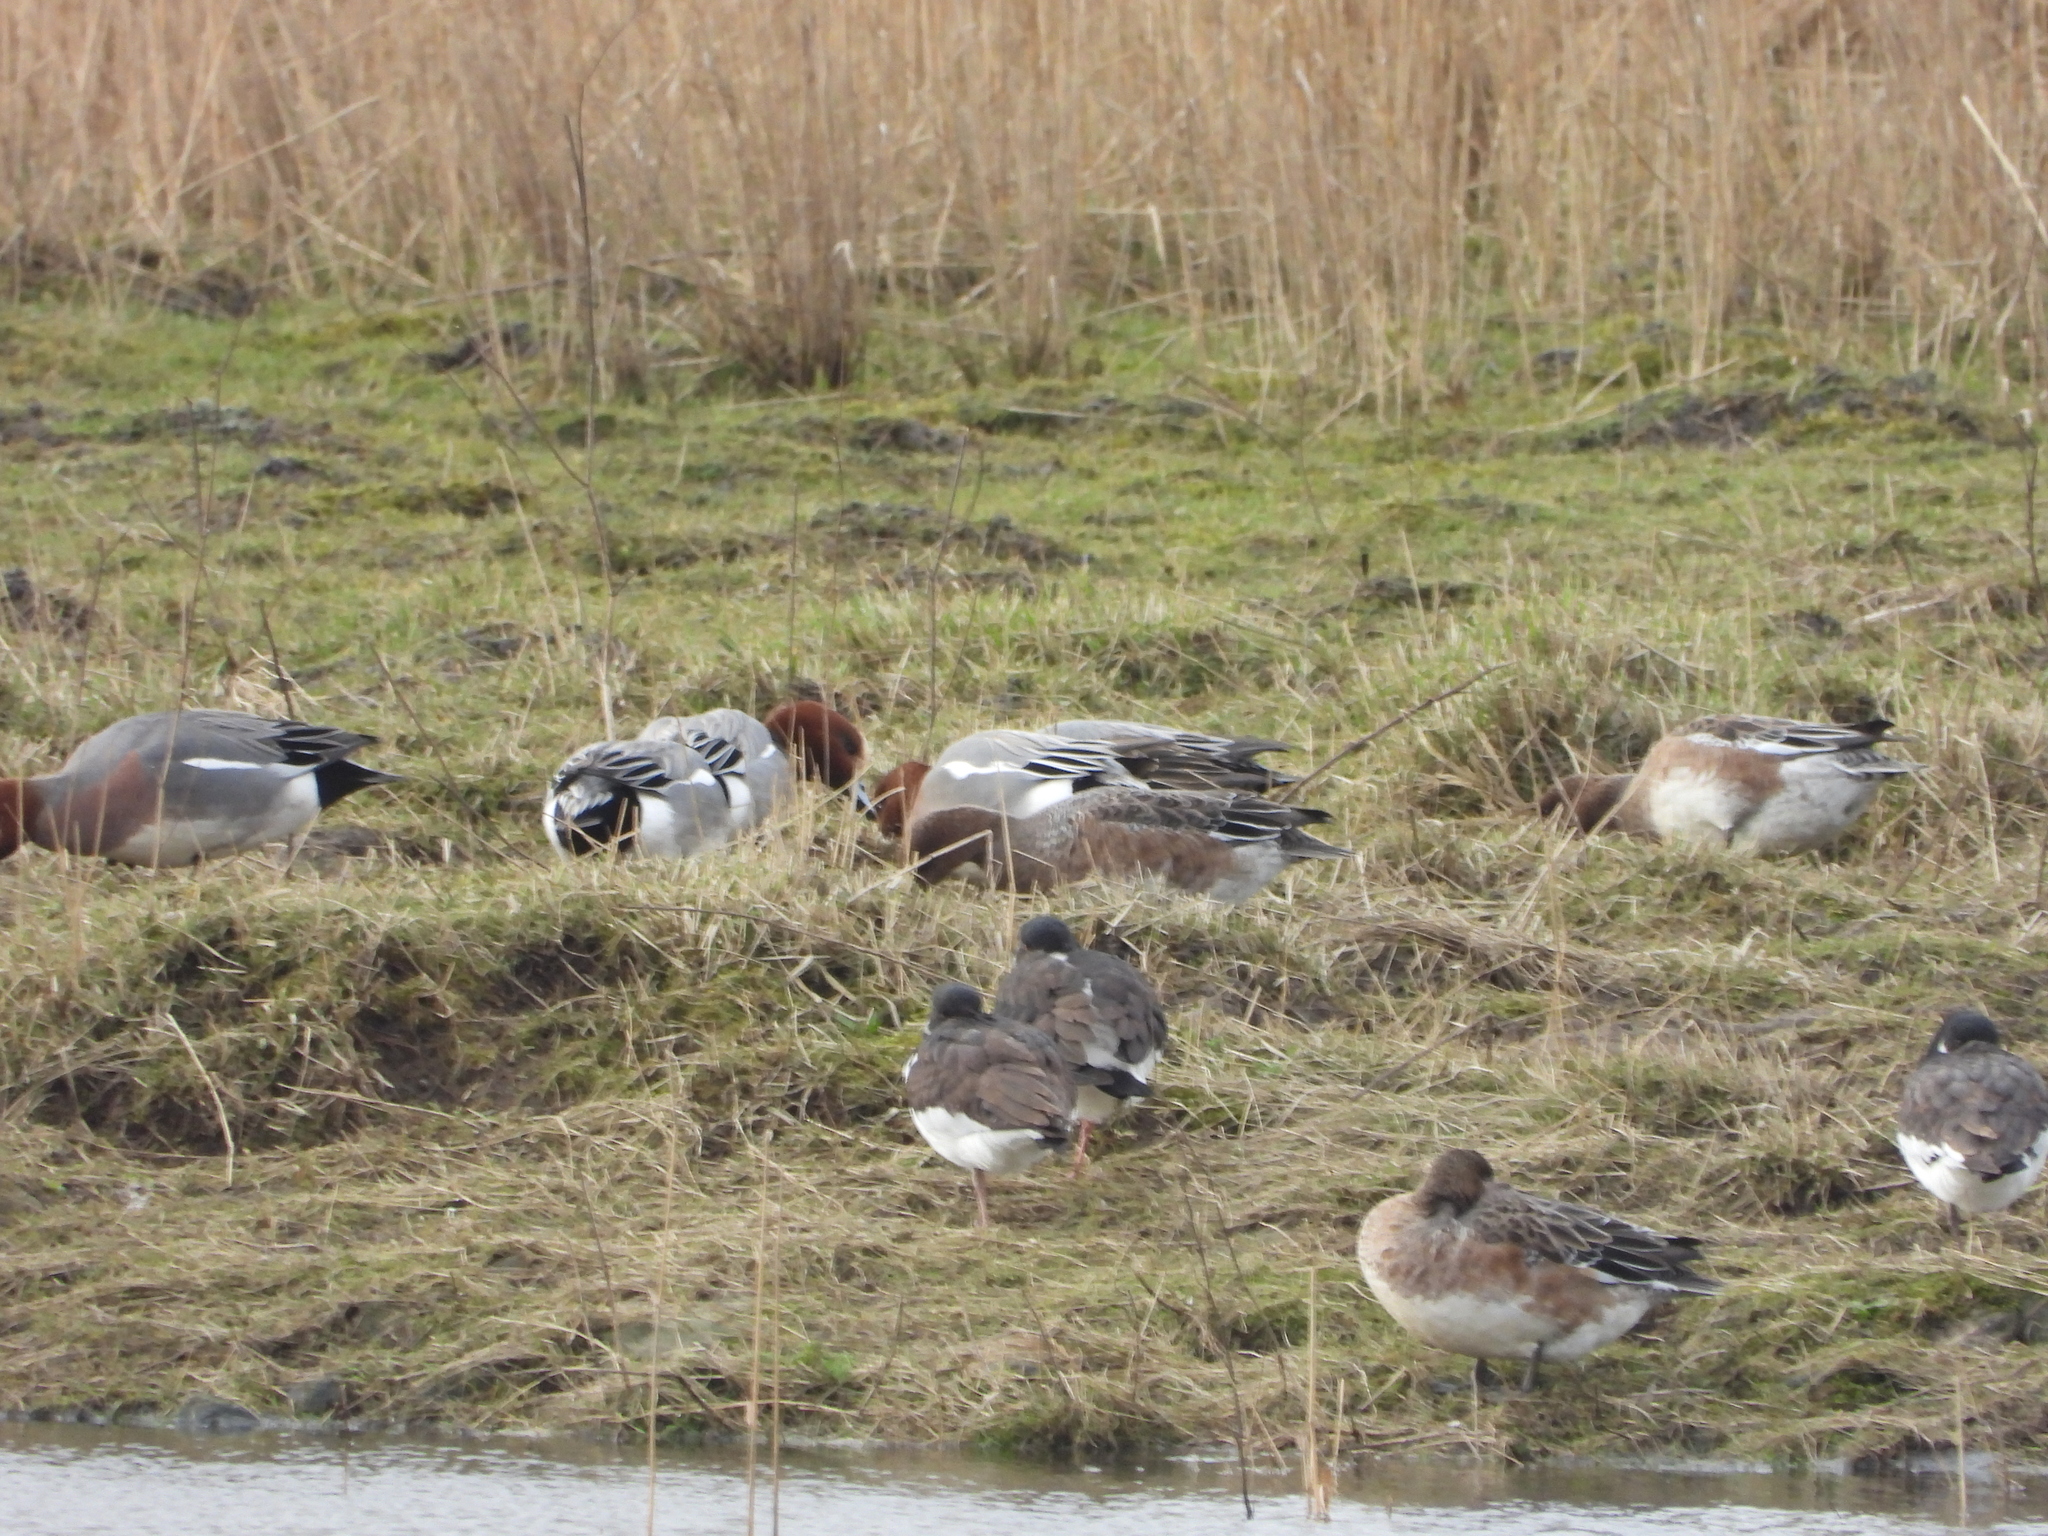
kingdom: Animalia
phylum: Chordata
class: Aves
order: Anseriformes
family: Anatidae
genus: Mareca
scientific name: Mareca penelope
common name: Eurasian wigeon
